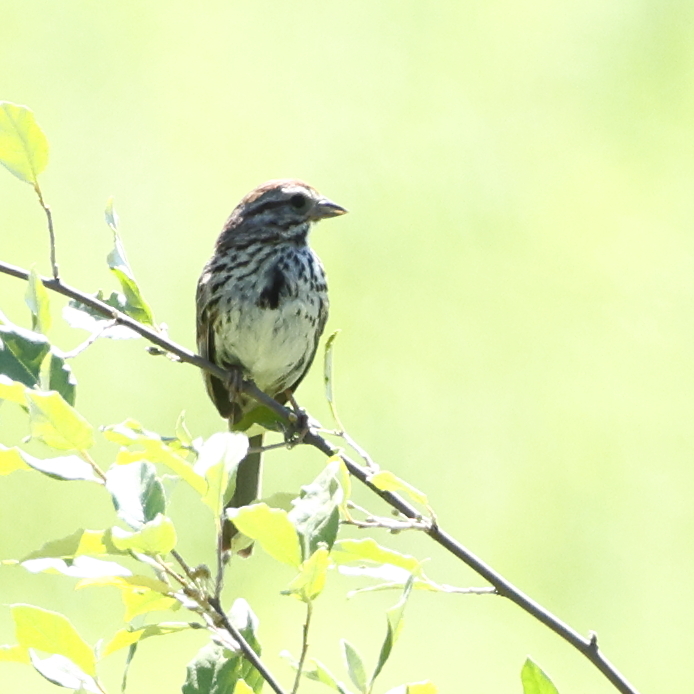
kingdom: Animalia
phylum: Chordata
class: Aves
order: Passeriformes
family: Passerellidae
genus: Melospiza
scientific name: Melospiza melodia
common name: Song sparrow
